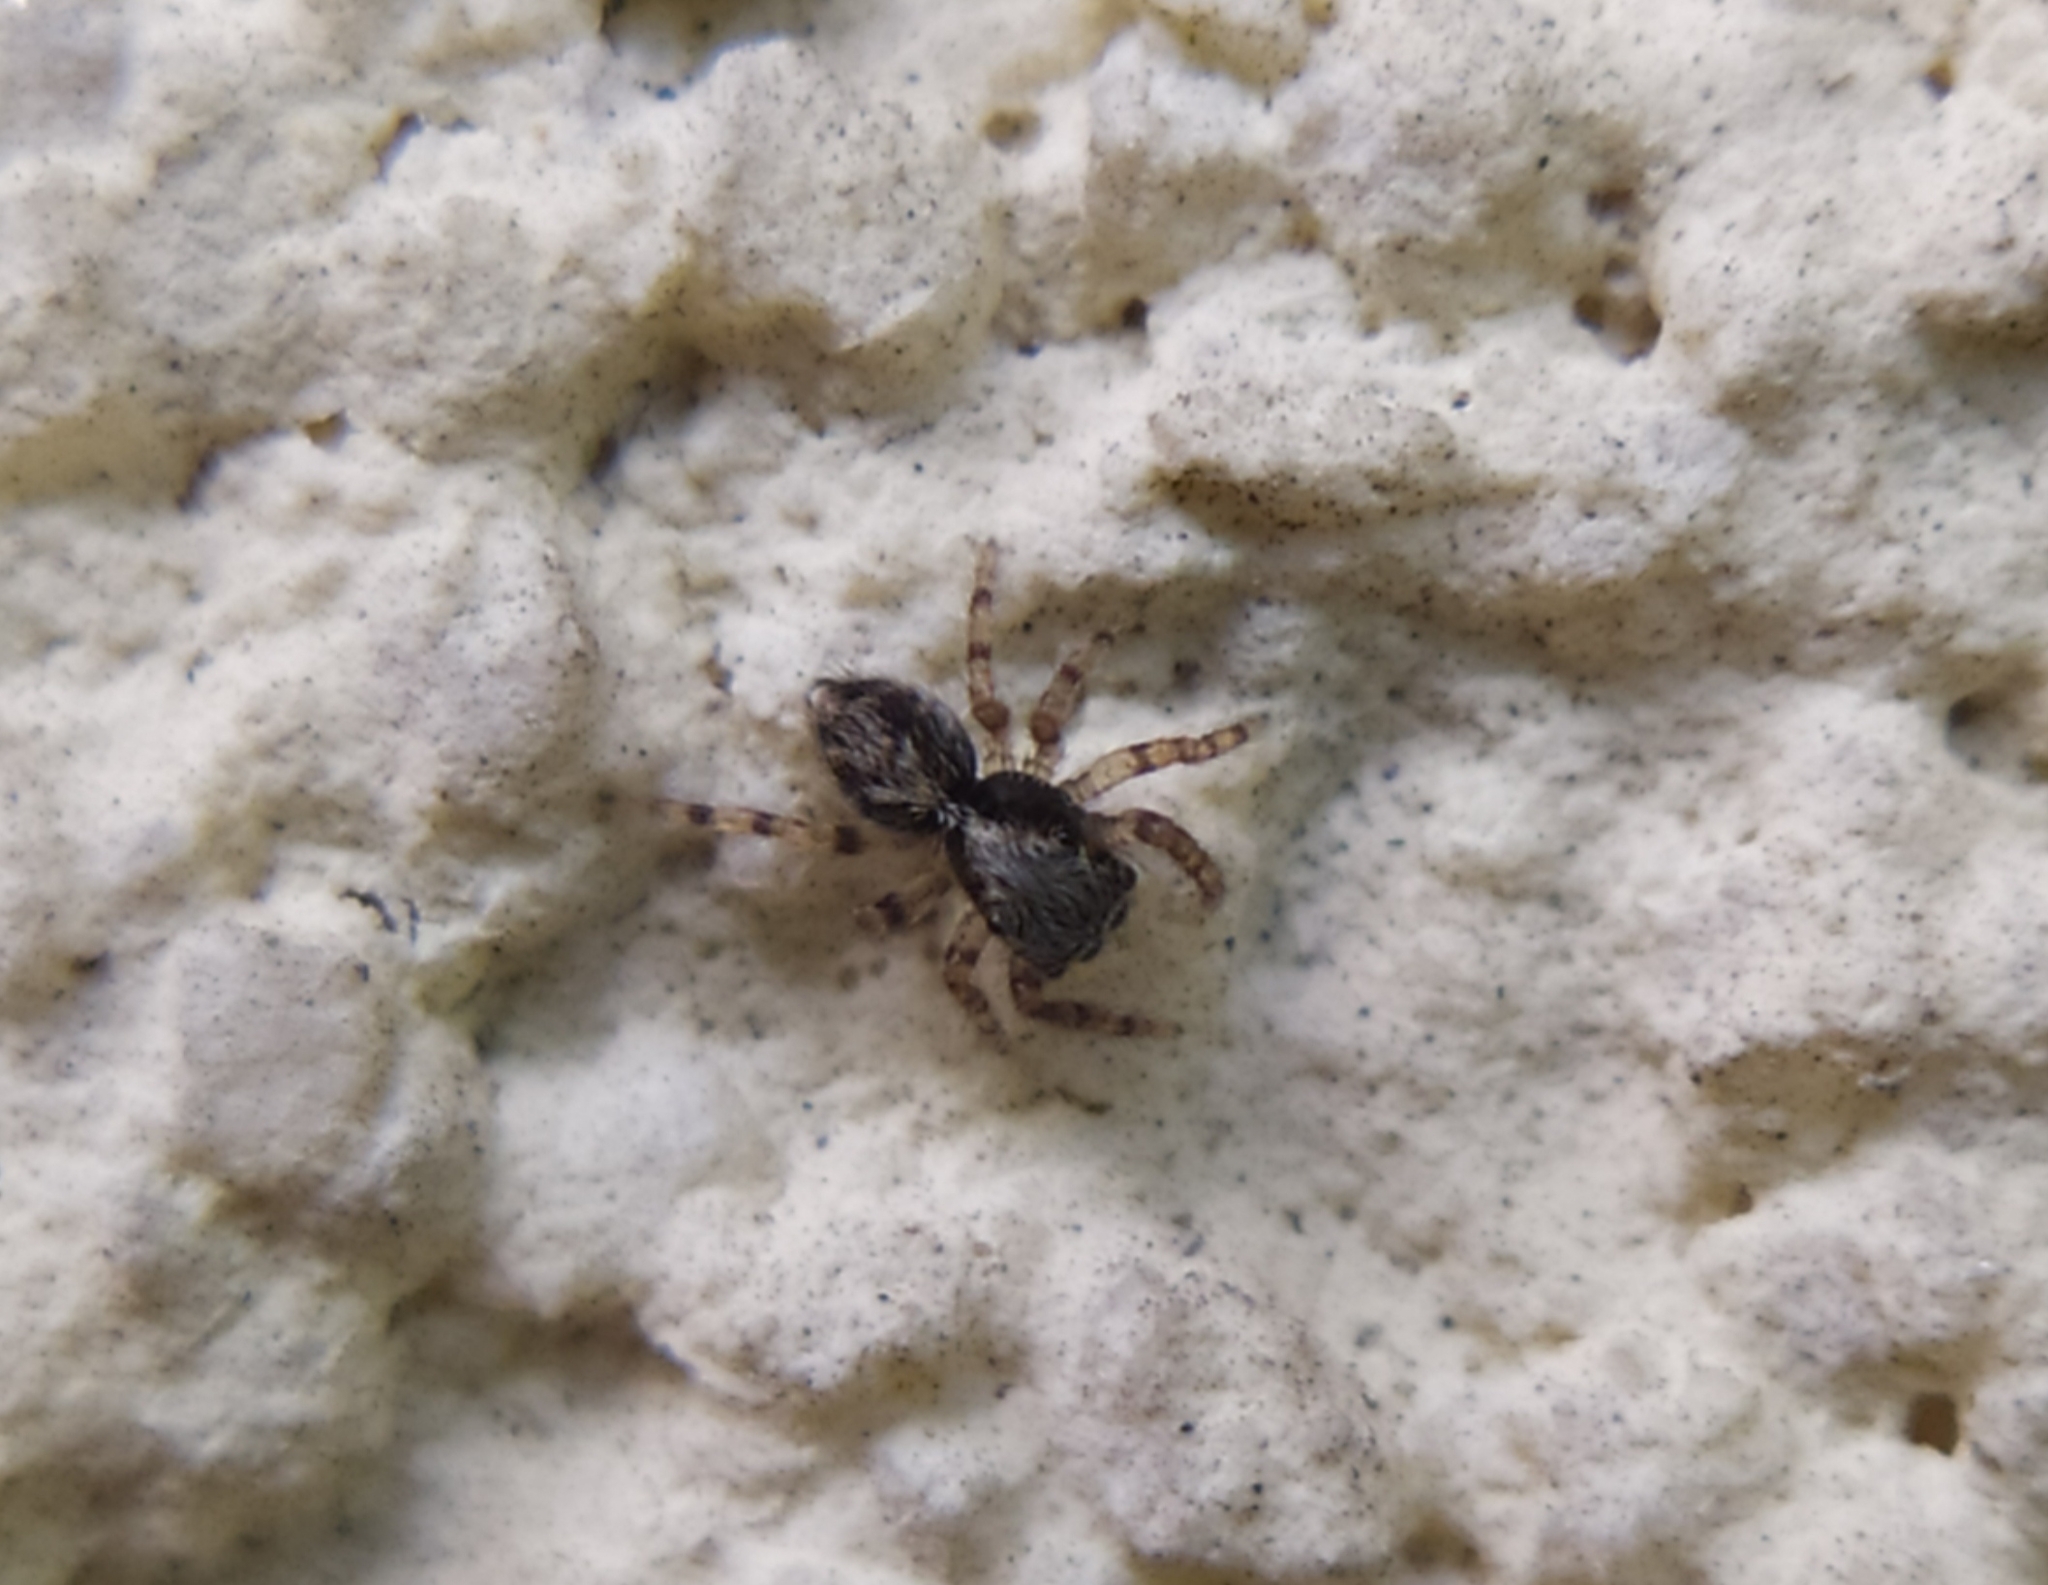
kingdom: Animalia
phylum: Arthropoda
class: Arachnida
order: Araneae
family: Salticidae
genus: Pseudeuophrys
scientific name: Pseudeuophrys lanigera
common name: Jumping spider
